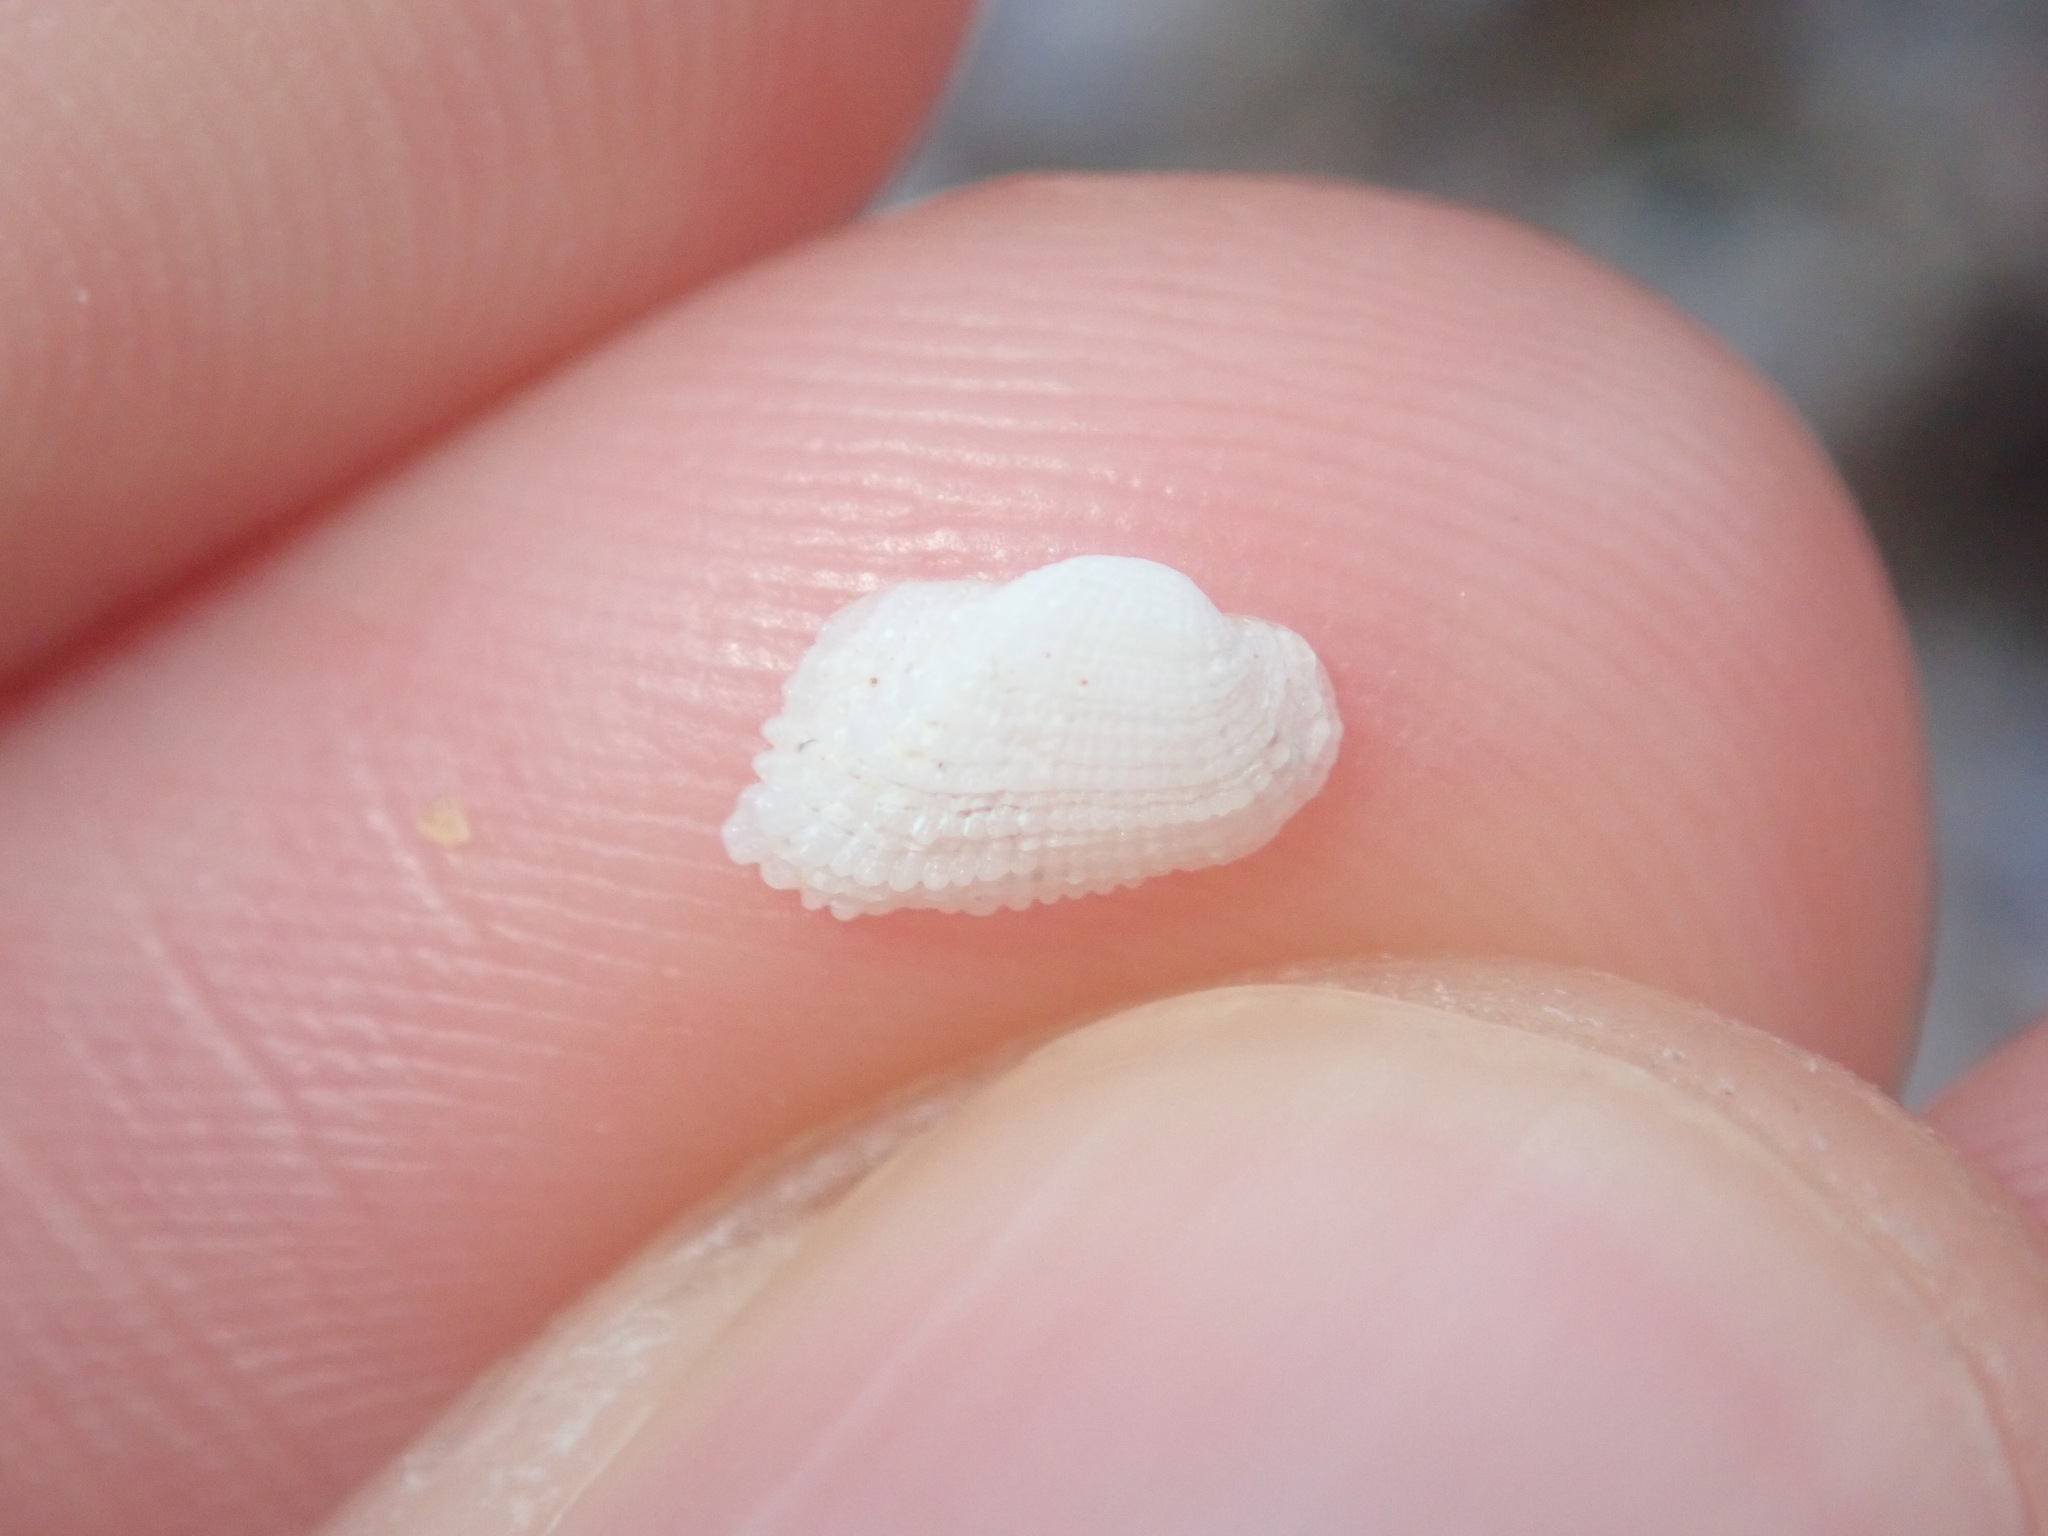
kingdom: Animalia
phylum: Mollusca
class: Bivalvia
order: Arcida
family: Arcidae
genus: Acar
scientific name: Acar botanica
